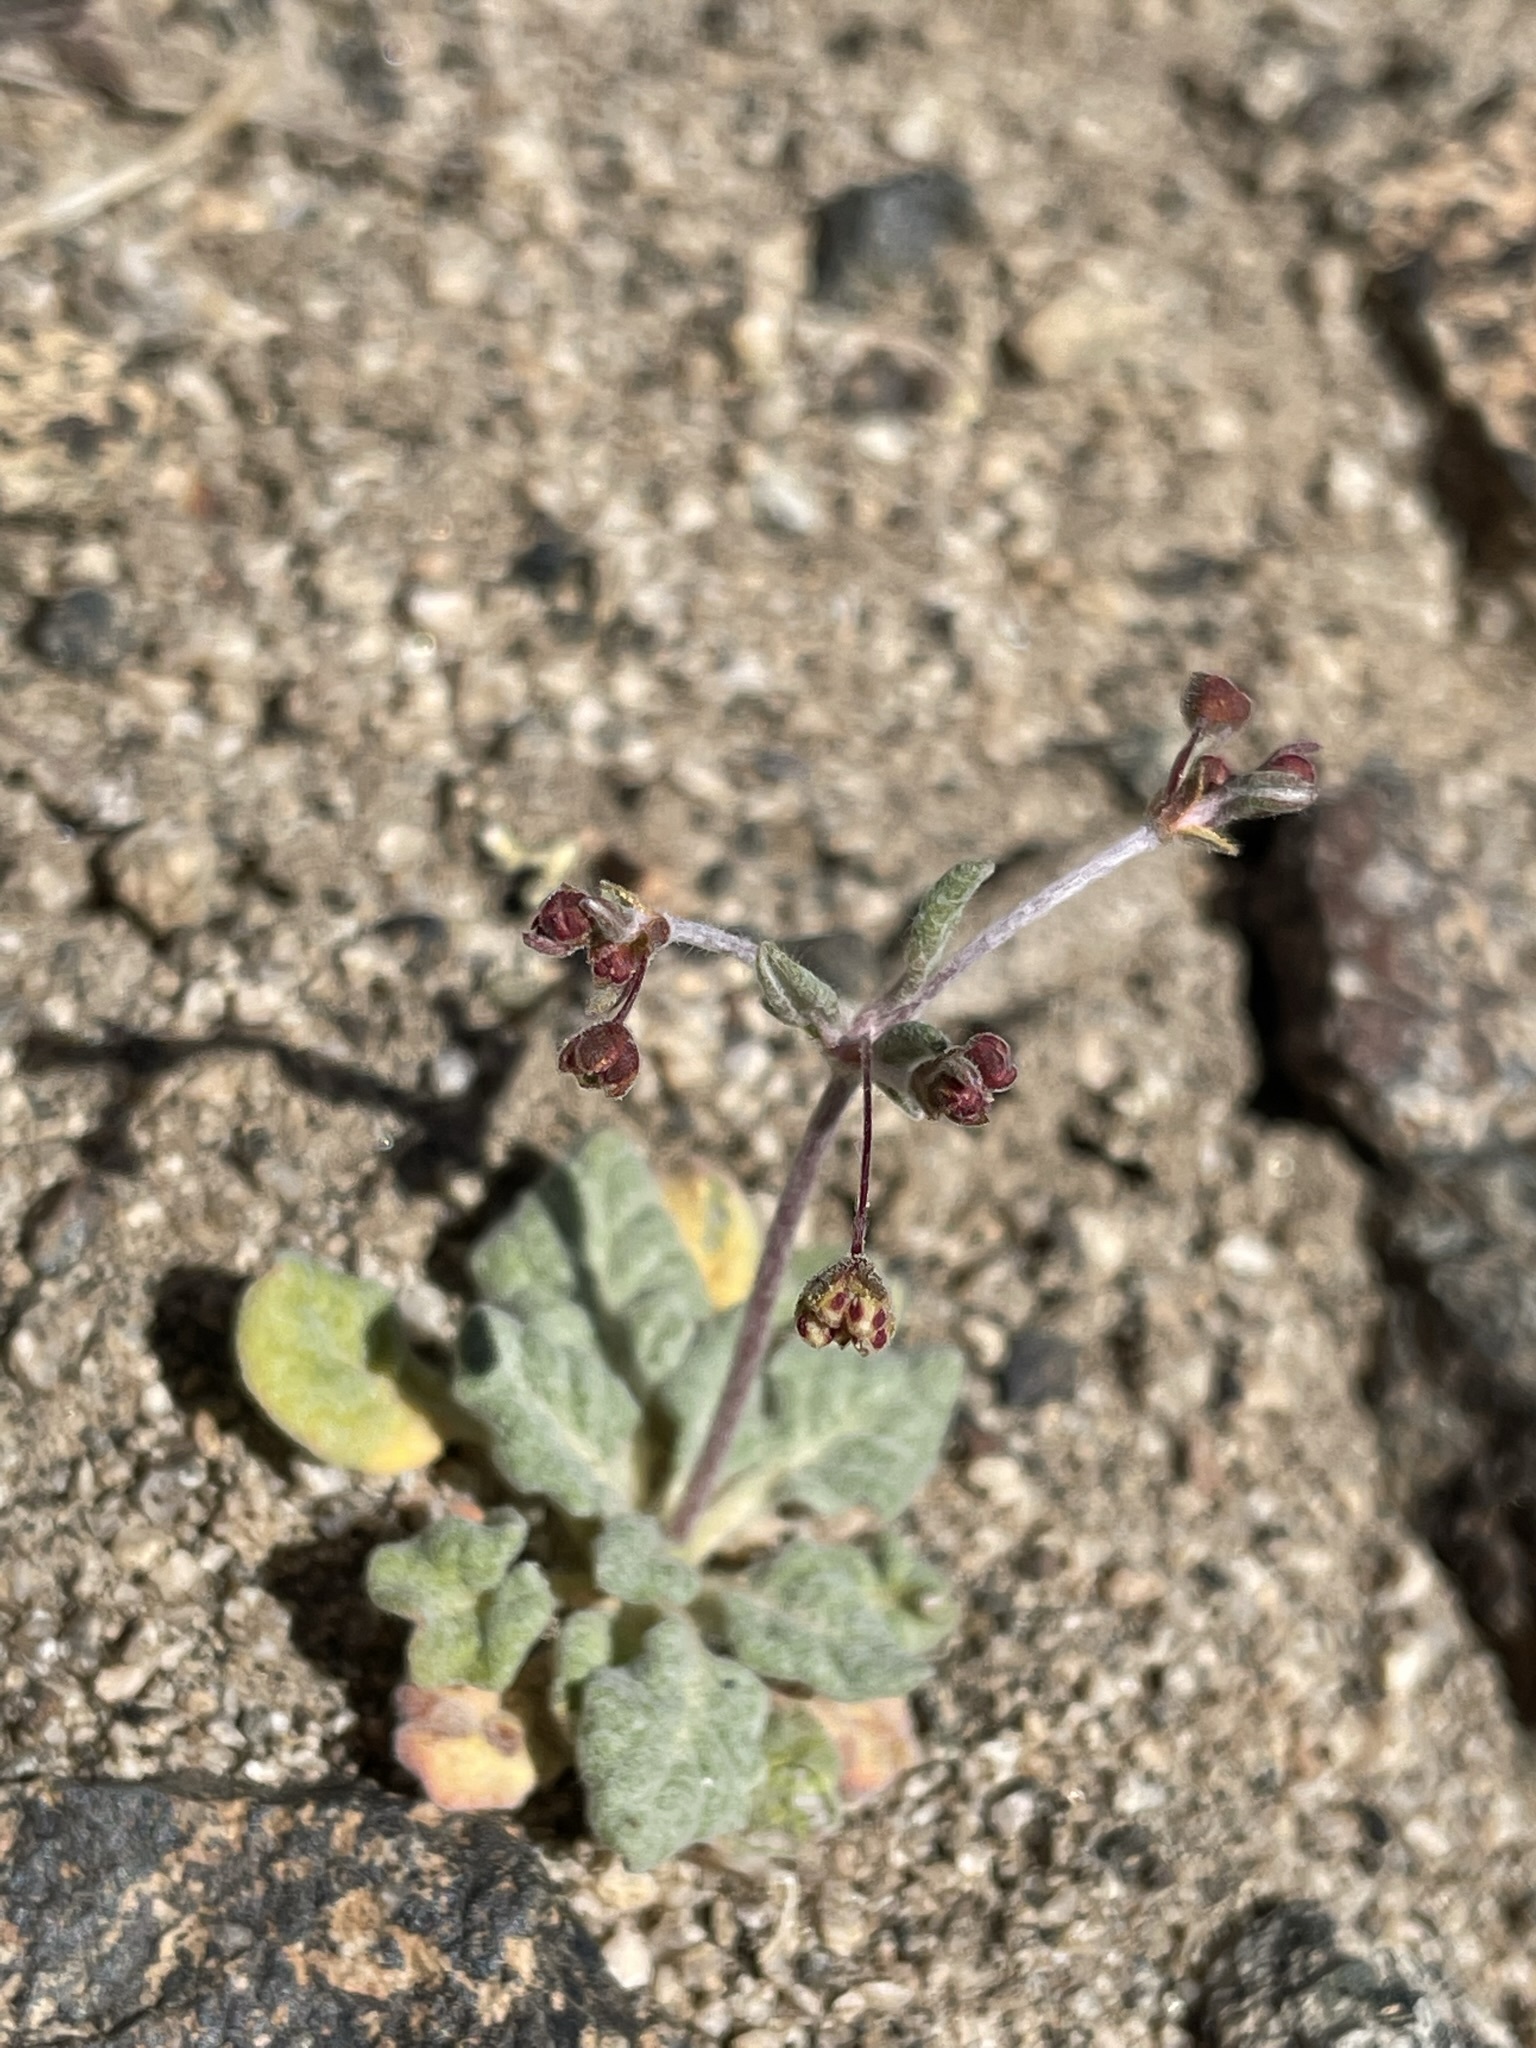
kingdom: Plantae
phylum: Tracheophyta
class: Magnoliopsida
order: Caryophyllales
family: Polygonaceae
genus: Eriogonum
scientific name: Eriogonum maculatum
